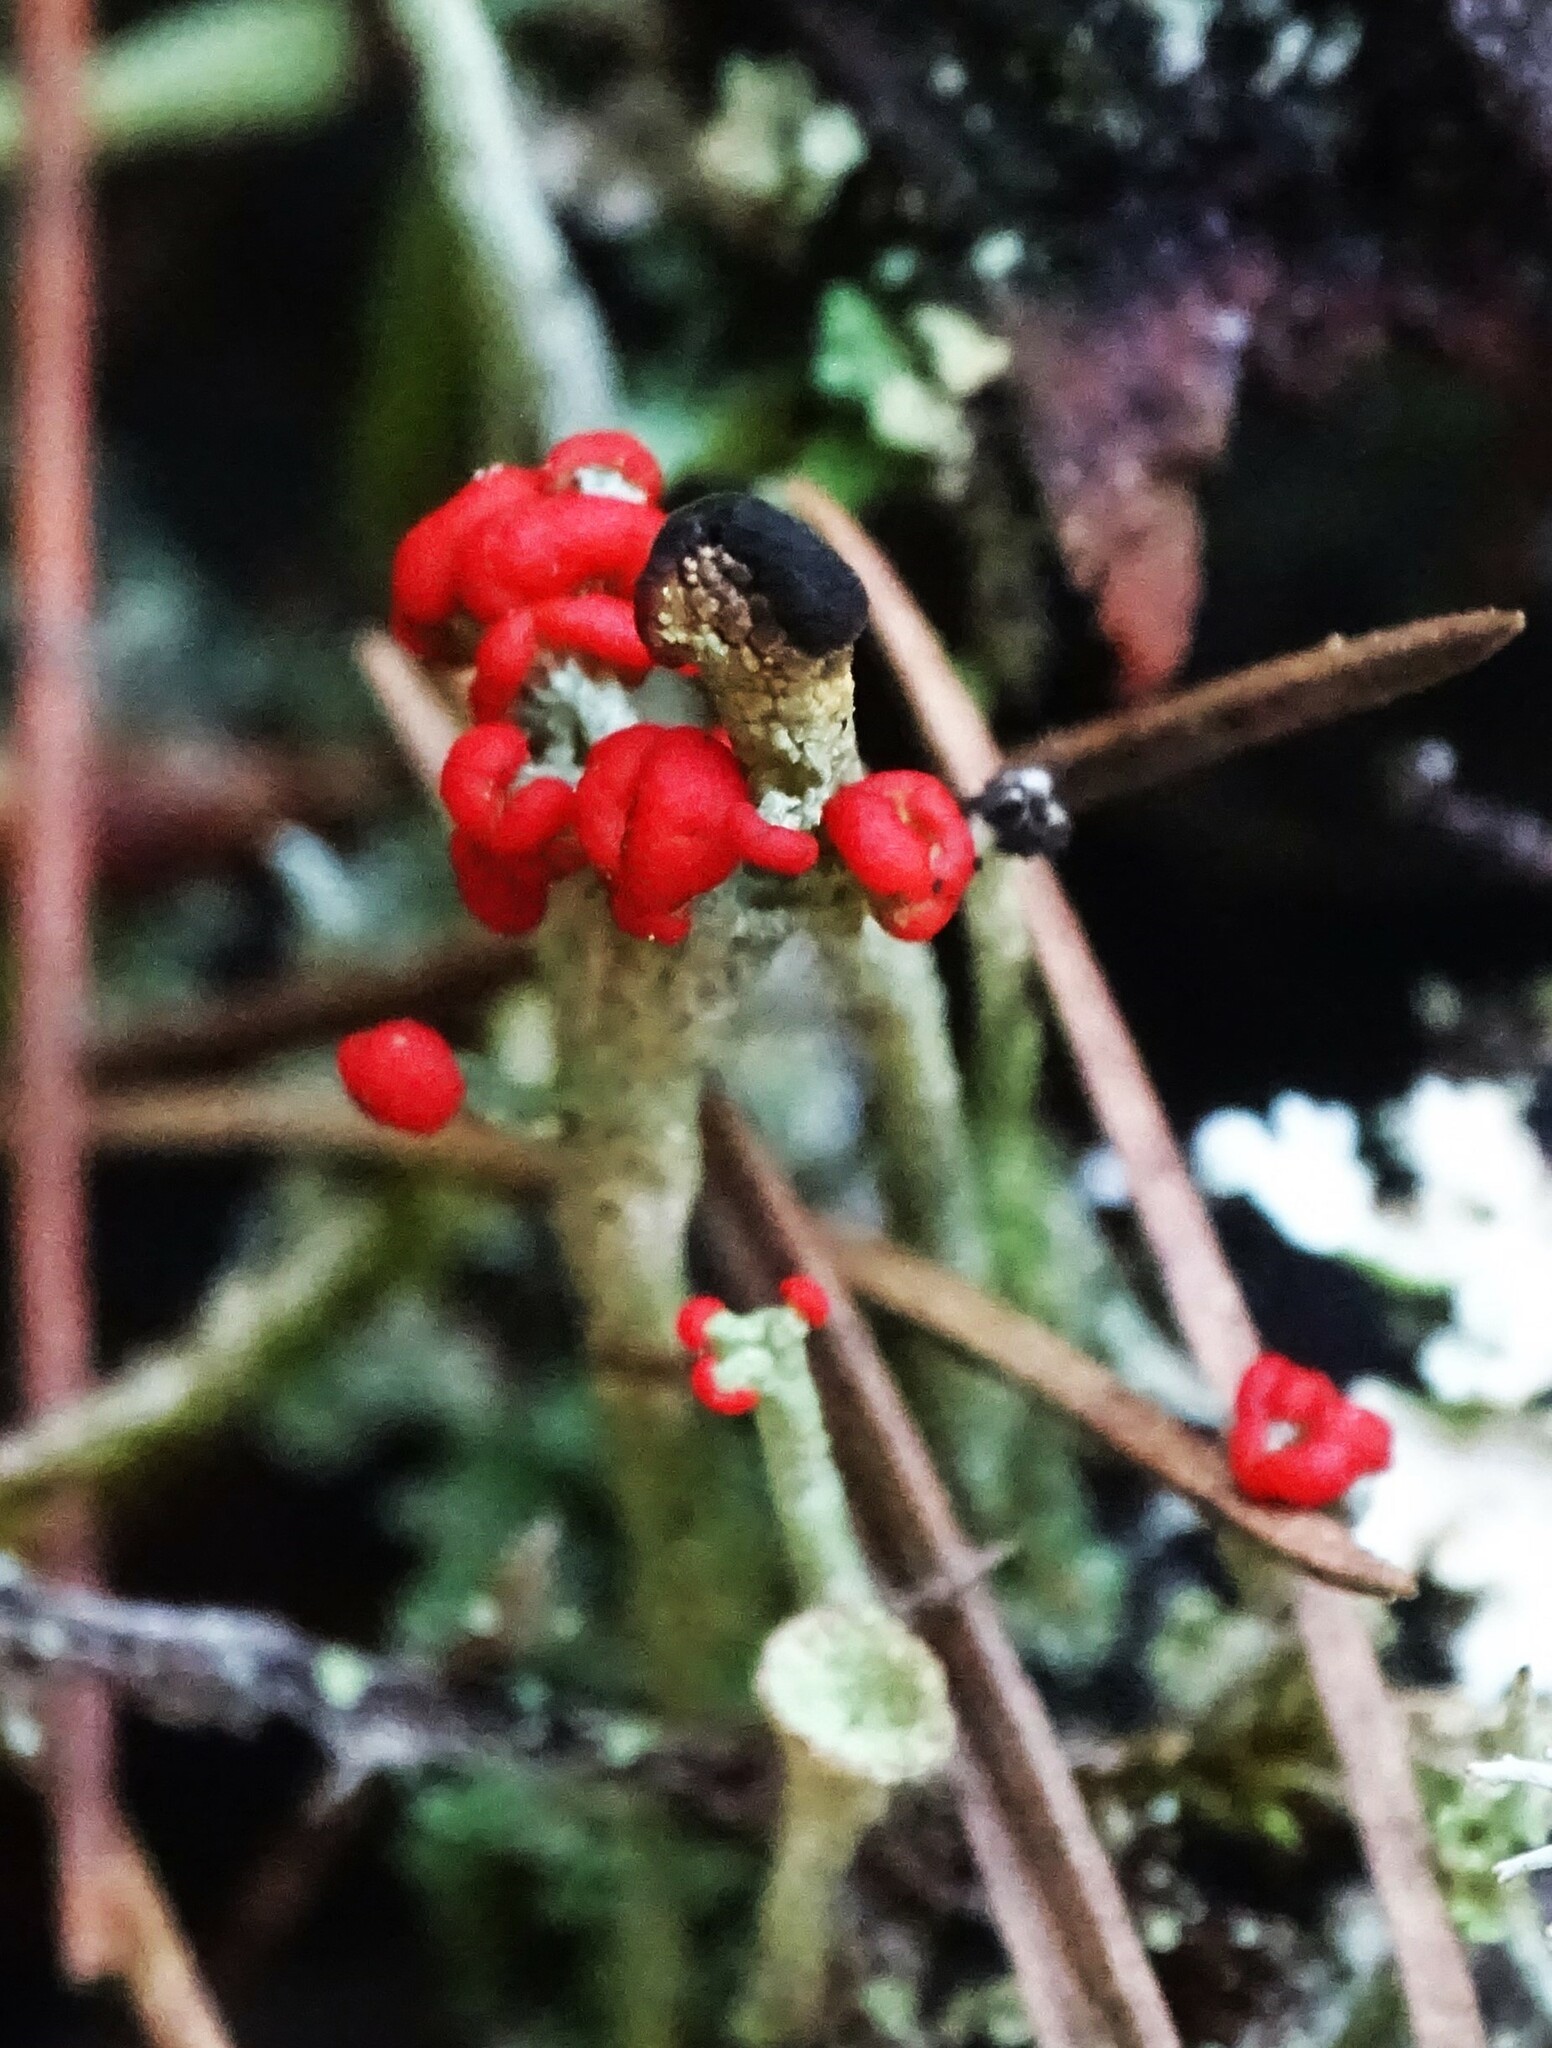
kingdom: Fungi
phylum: Ascomycota
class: Lecanoromycetes
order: Lecanorales
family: Cladoniaceae
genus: Cladonia
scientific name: Cladonia cristatella
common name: British soldier lichen
